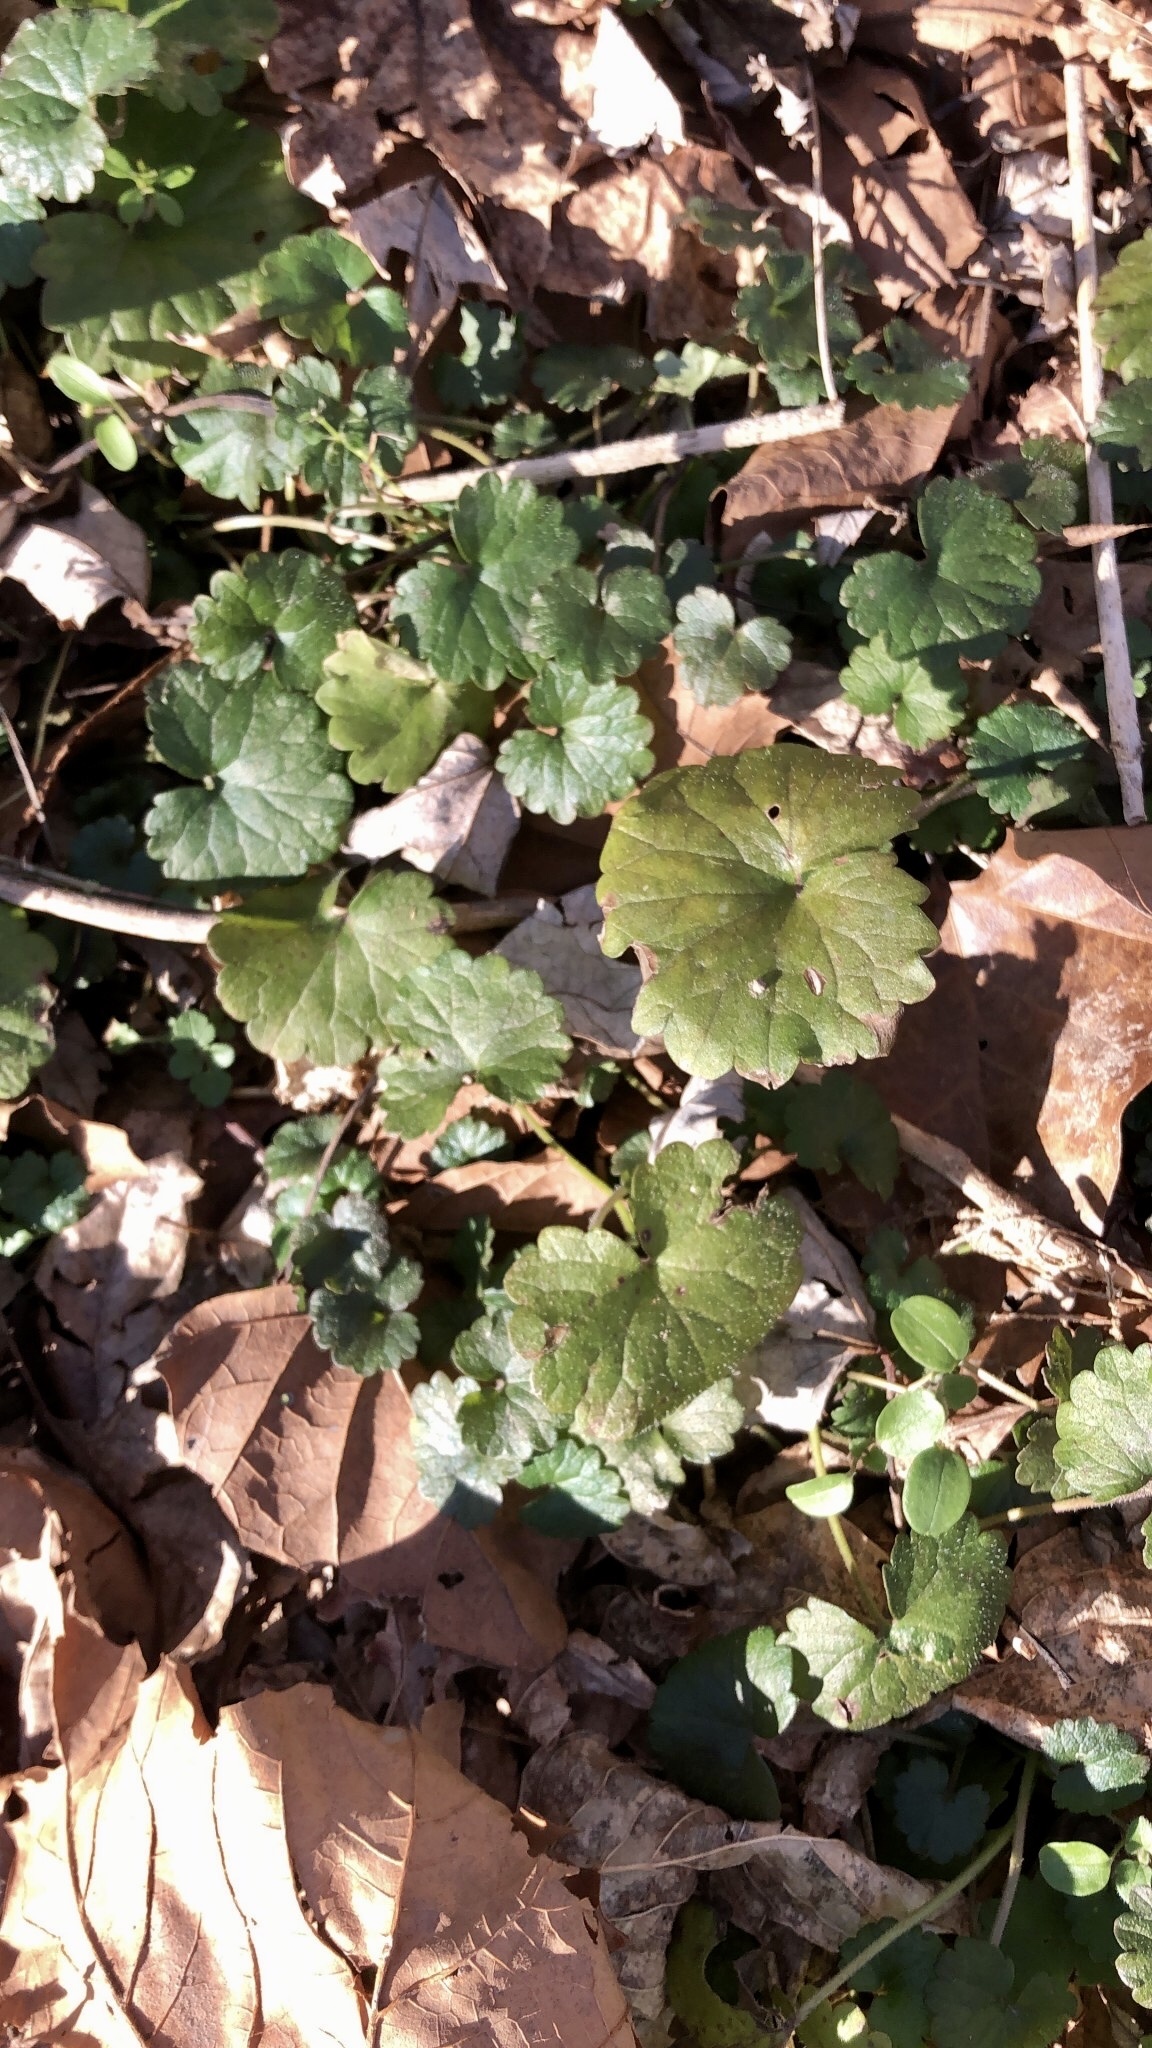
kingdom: Plantae
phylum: Tracheophyta
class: Magnoliopsida
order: Lamiales
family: Lamiaceae
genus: Glechoma
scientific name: Glechoma hederacea
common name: Ground ivy
